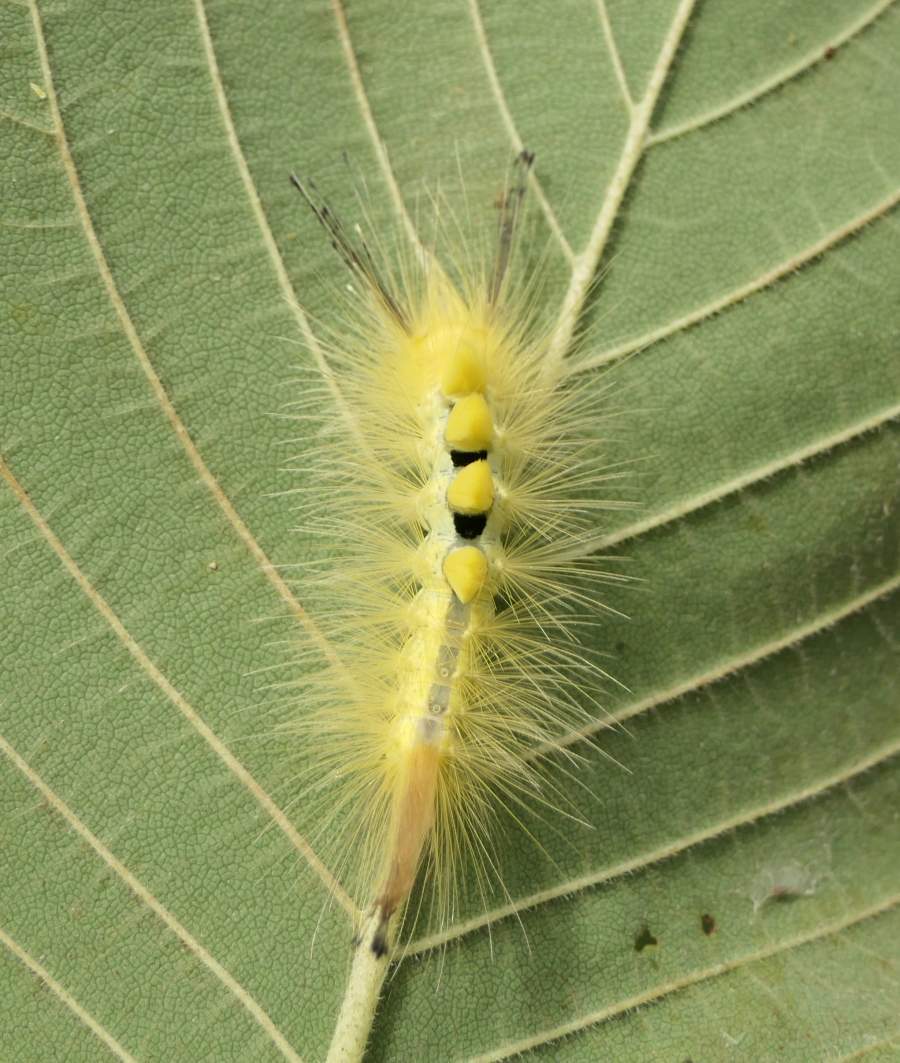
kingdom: Animalia
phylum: Arthropoda
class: Insecta
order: Lepidoptera
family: Erebidae
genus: Orgyia
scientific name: Orgyia definita
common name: Definite tussock moth
